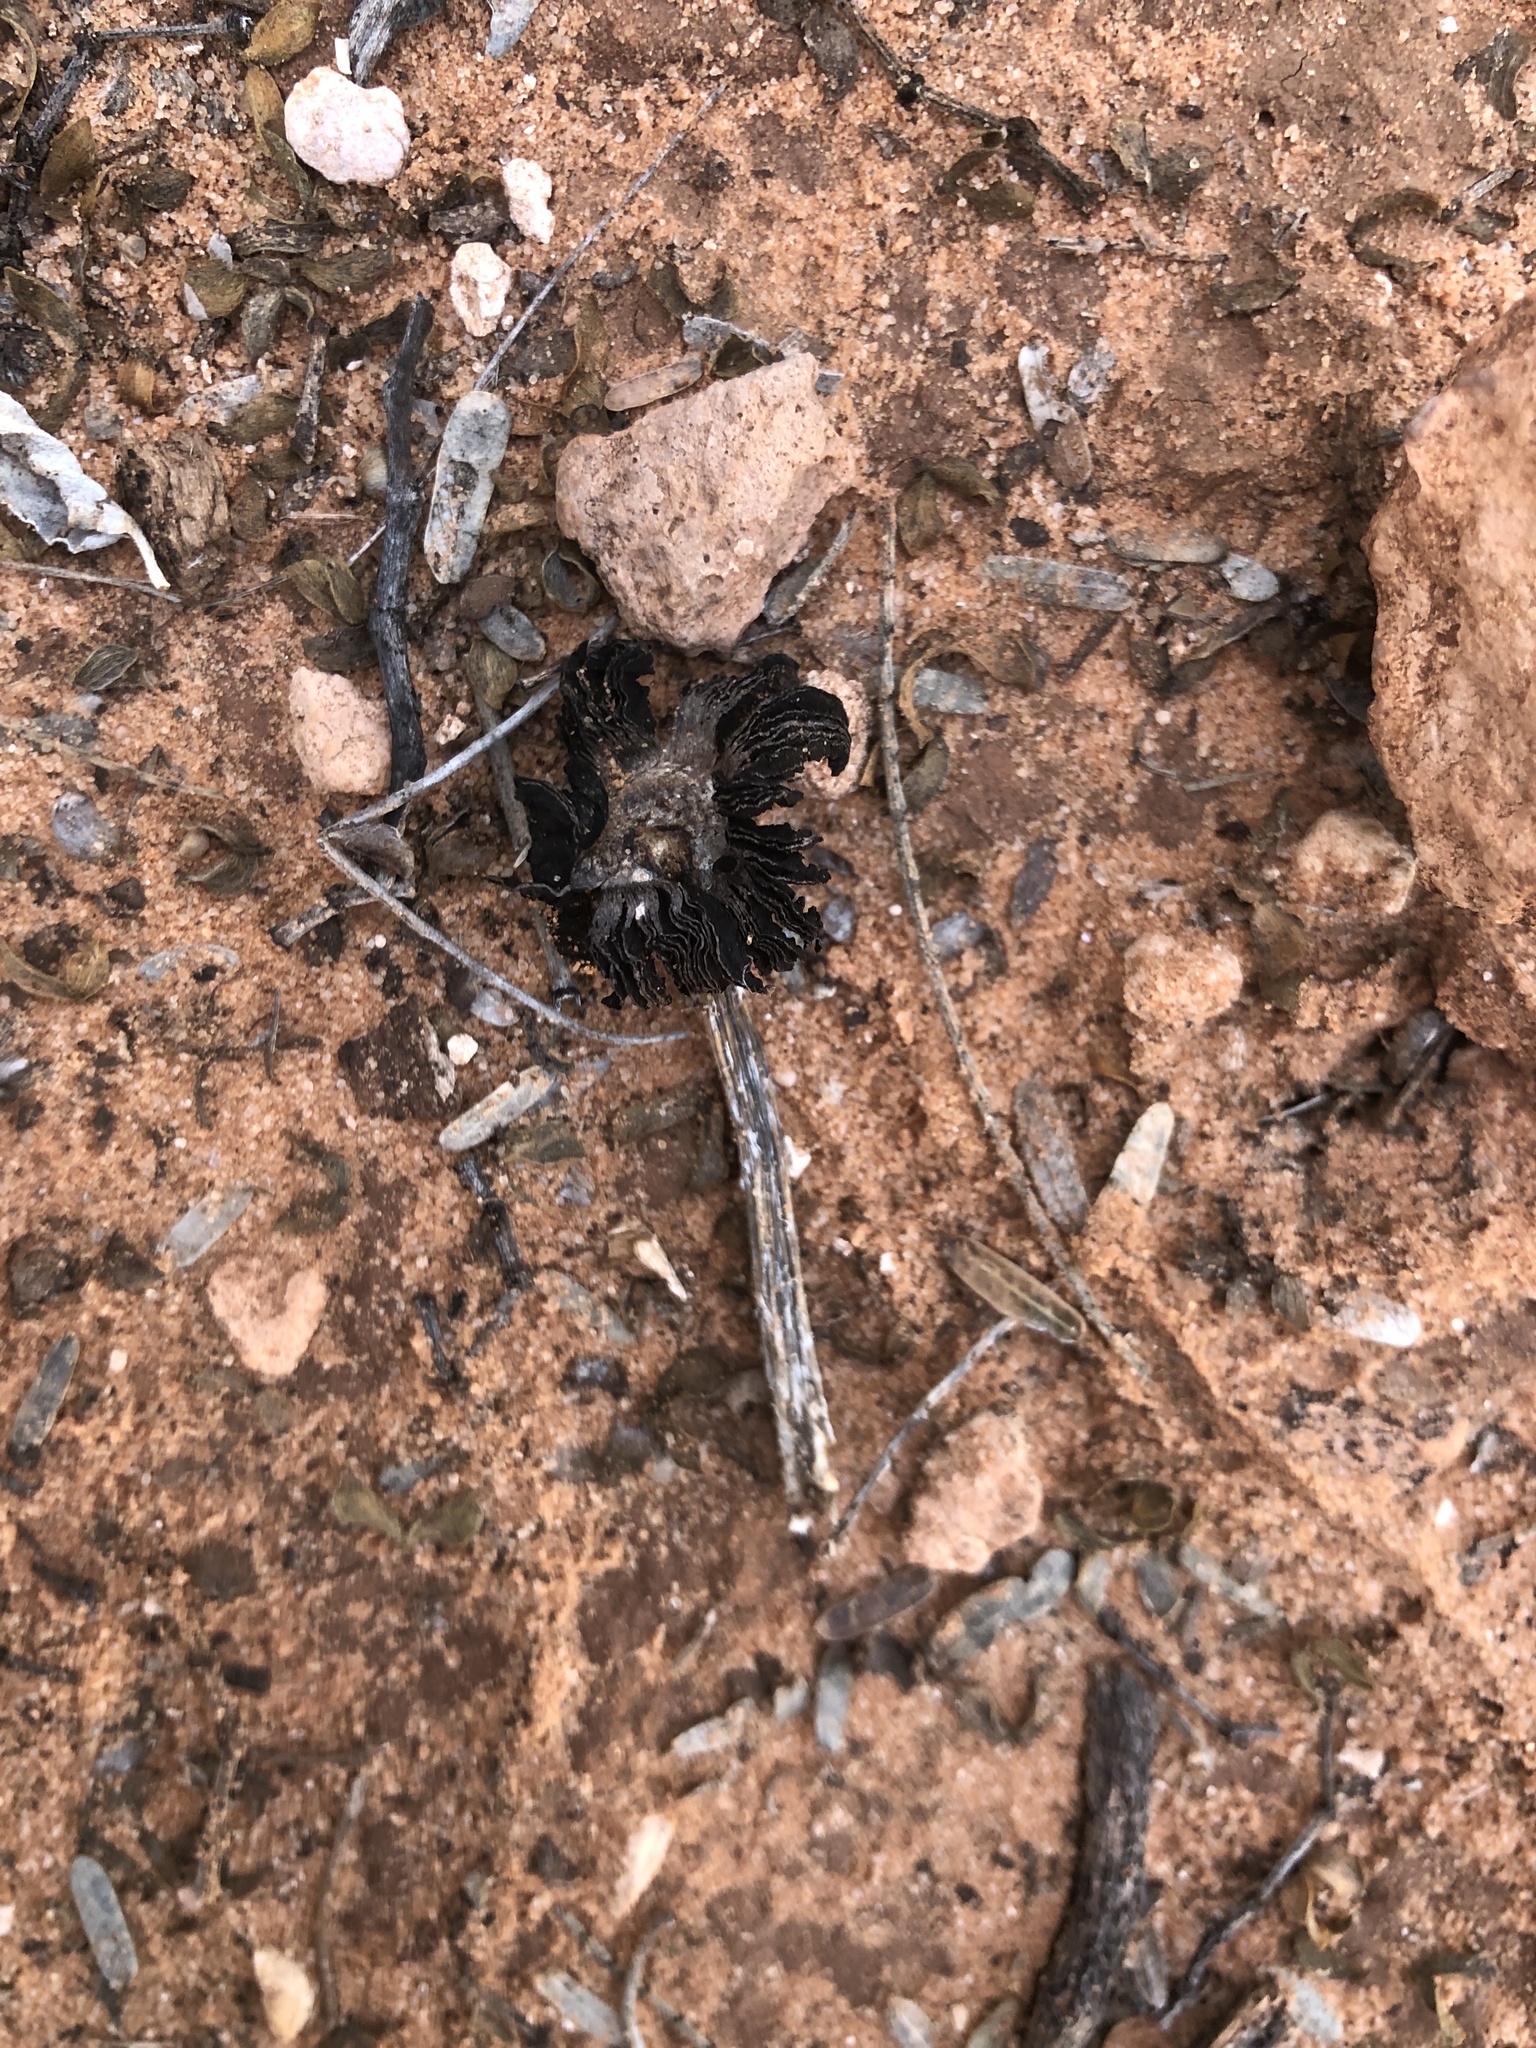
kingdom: Fungi
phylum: Basidiomycota
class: Agaricomycetes
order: Agaricales
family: Agaricaceae
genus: Montagnea
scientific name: Montagnea arenaria
